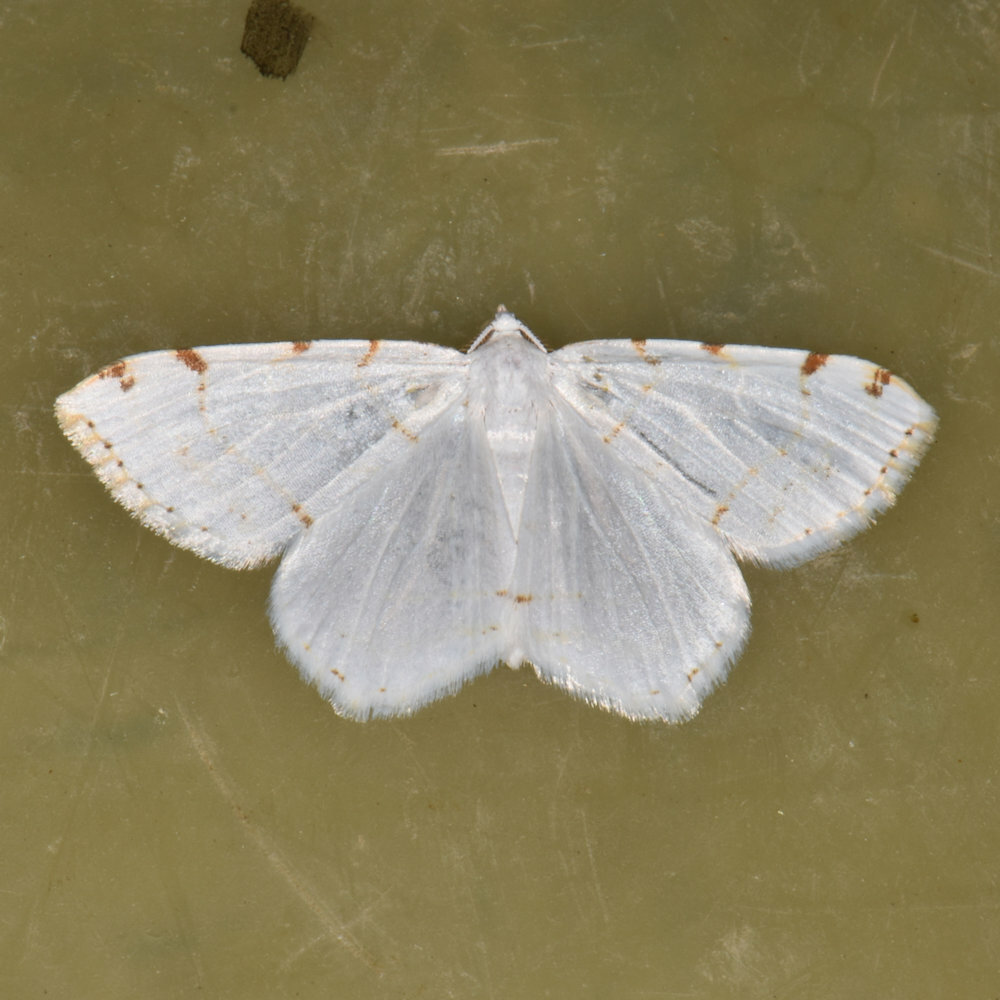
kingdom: Animalia
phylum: Arthropoda
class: Insecta
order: Lepidoptera
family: Geometridae
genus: Macaria
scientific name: Macaria pustularia
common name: Lesser maple spanworm moth
